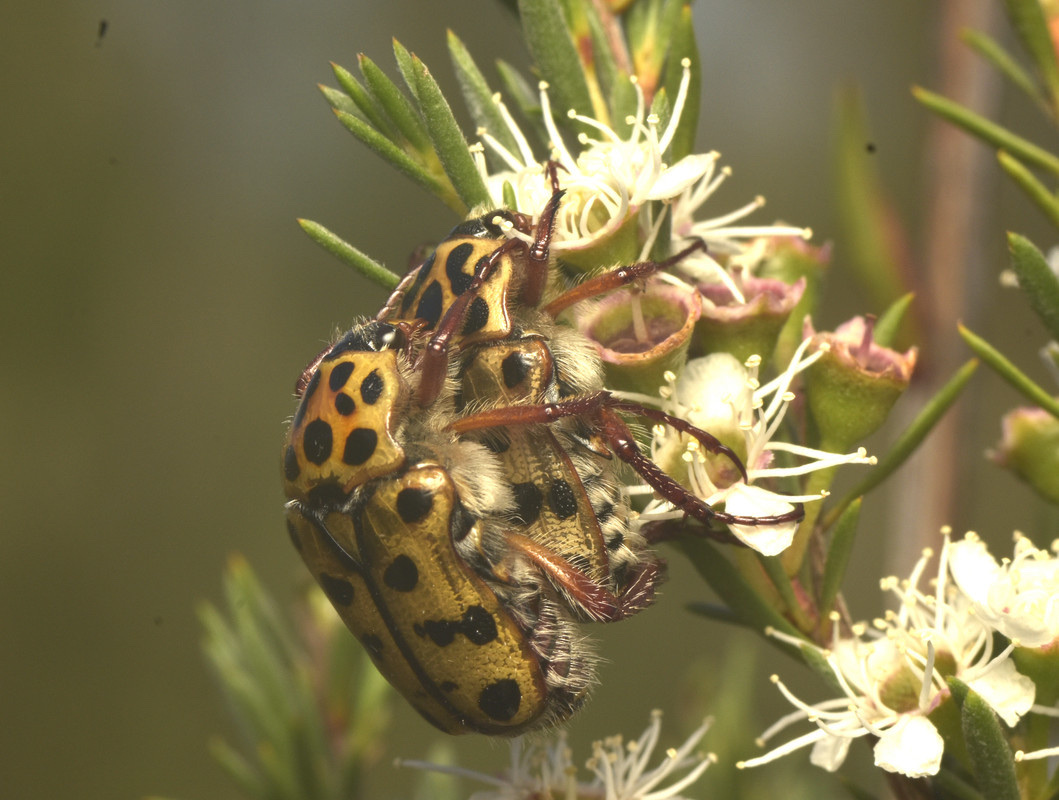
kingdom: Animalia
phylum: Arthropoda
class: Insecta
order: Coleoptera
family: Scarabaeidae
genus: Neorrhina
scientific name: Neorrhina punctatum
